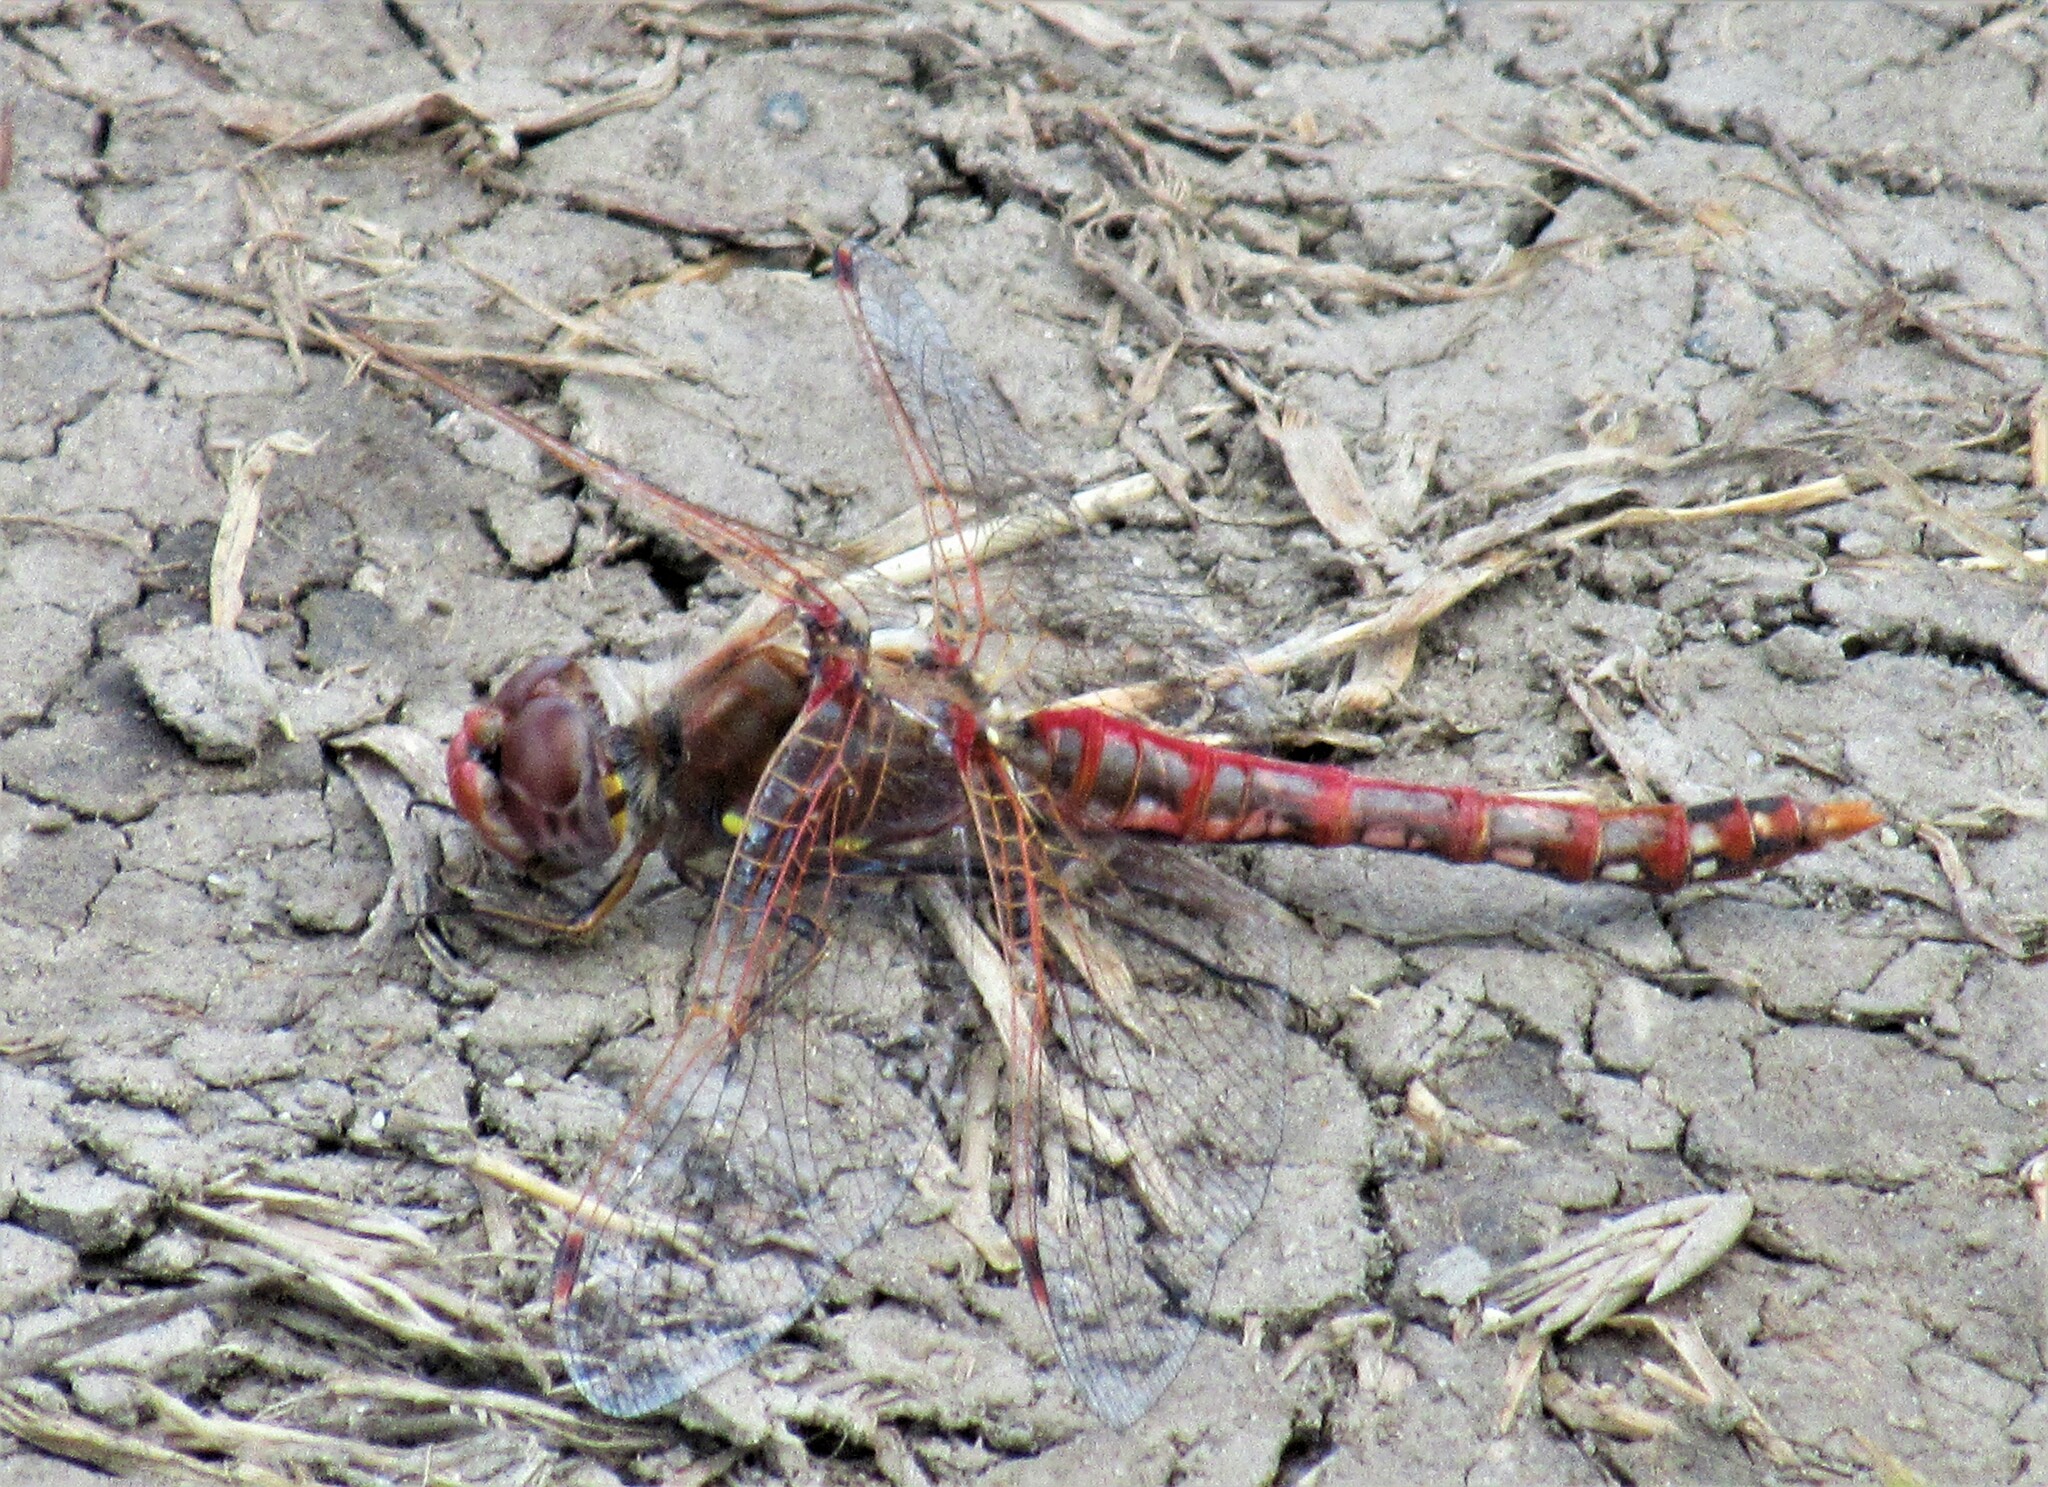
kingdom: Animalia
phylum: Arthropoda
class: Insecta
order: Odonata
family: Libellulidae
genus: Sympetrum
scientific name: Sympetrum corruptum
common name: Variegated meadowhawk
